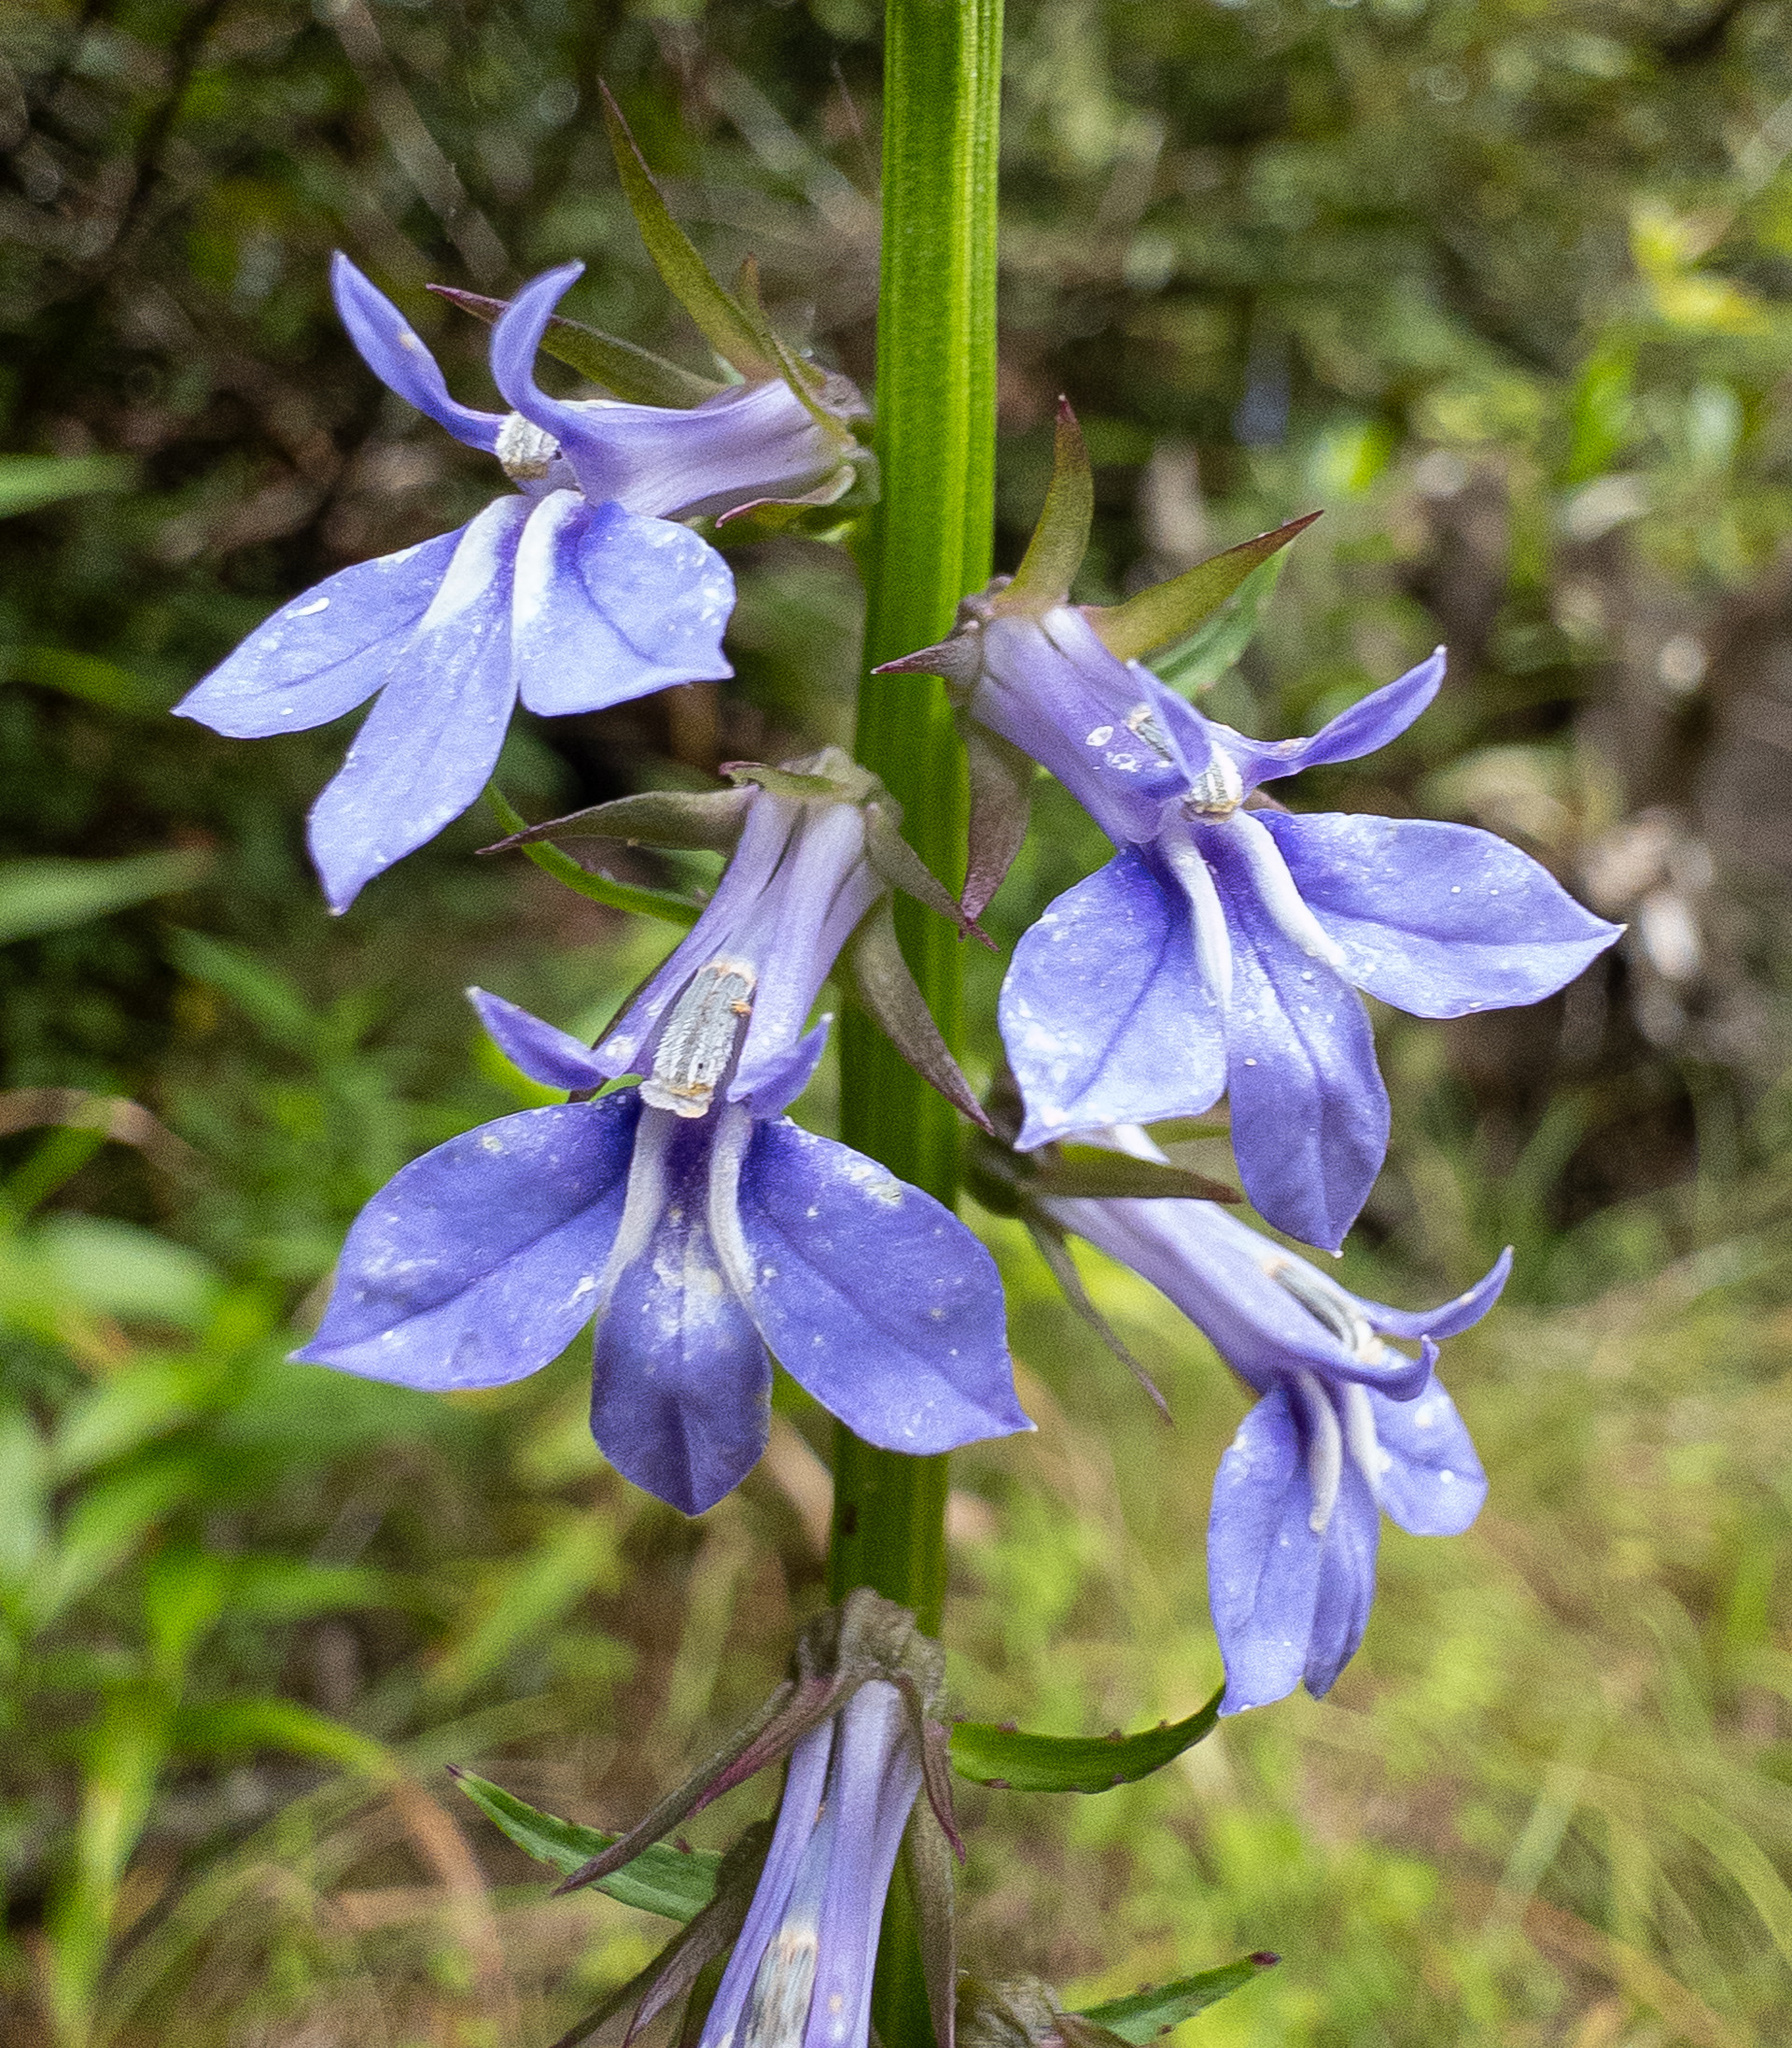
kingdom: Plantae
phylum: Tracheophyta
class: Magnoliopsida
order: Asterales
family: Campanulaceae
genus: Lobelia
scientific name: Lobelia amoena
